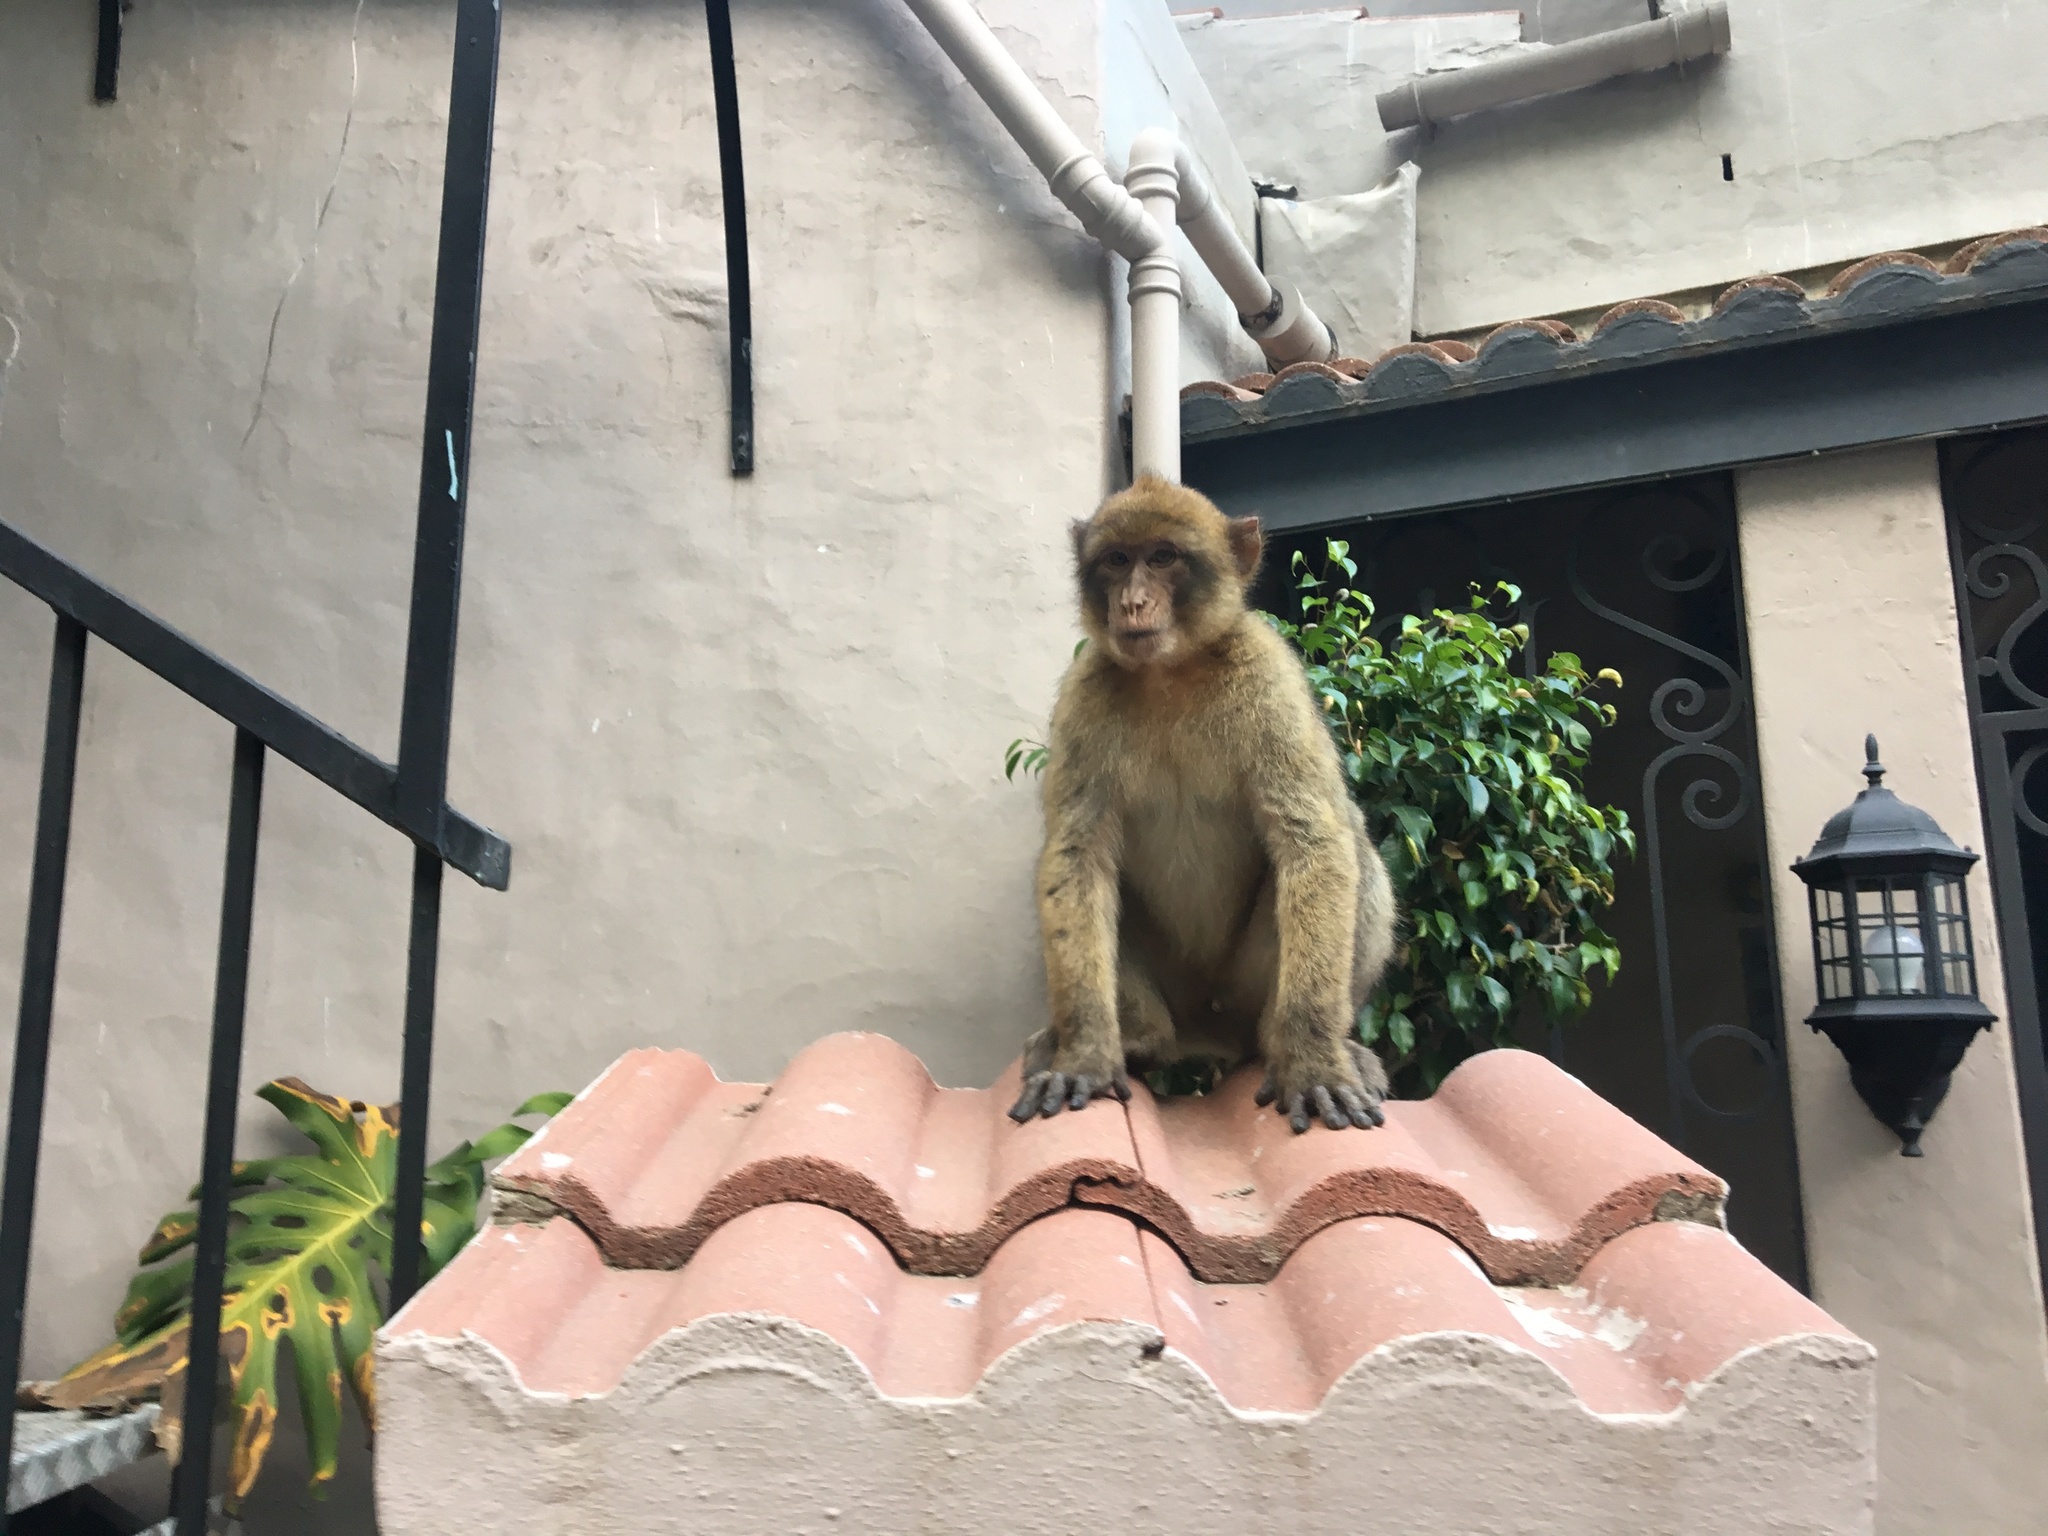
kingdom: Animalia
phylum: Chordata
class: Mammalia
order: Primates
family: Cercopithecidae
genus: Macaca
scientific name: Macaca sylvanus
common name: Barbary macaque
